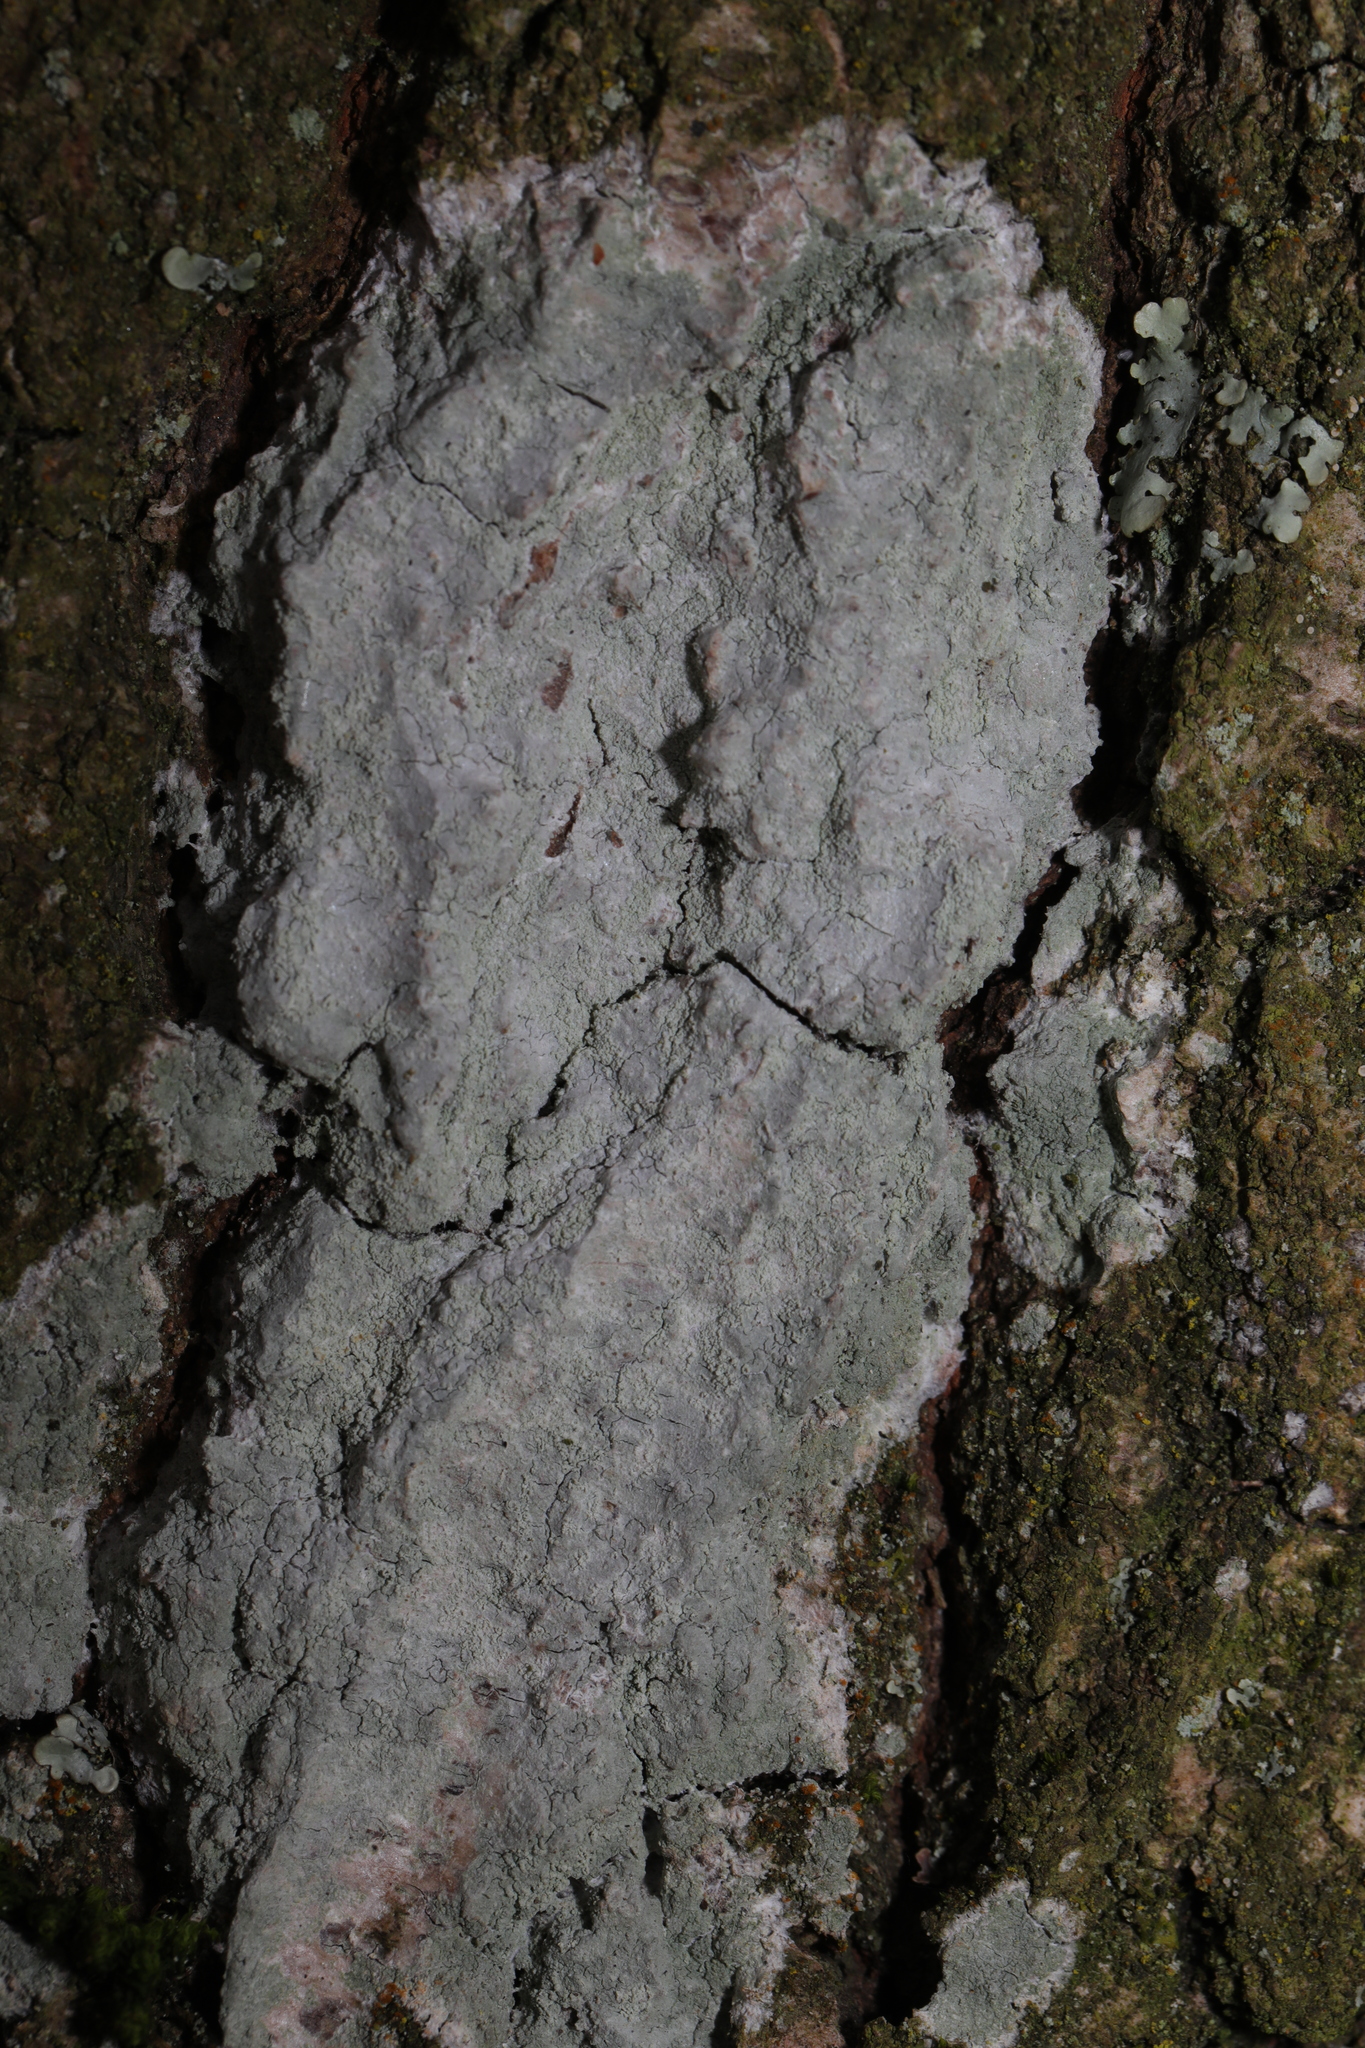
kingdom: Fungi
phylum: Ascomycota
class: Lecanoromycetes
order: Ostropales
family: Phlyctidaceae
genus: Phlyctis
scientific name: Phlyctis argena
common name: Whitewash lichen
